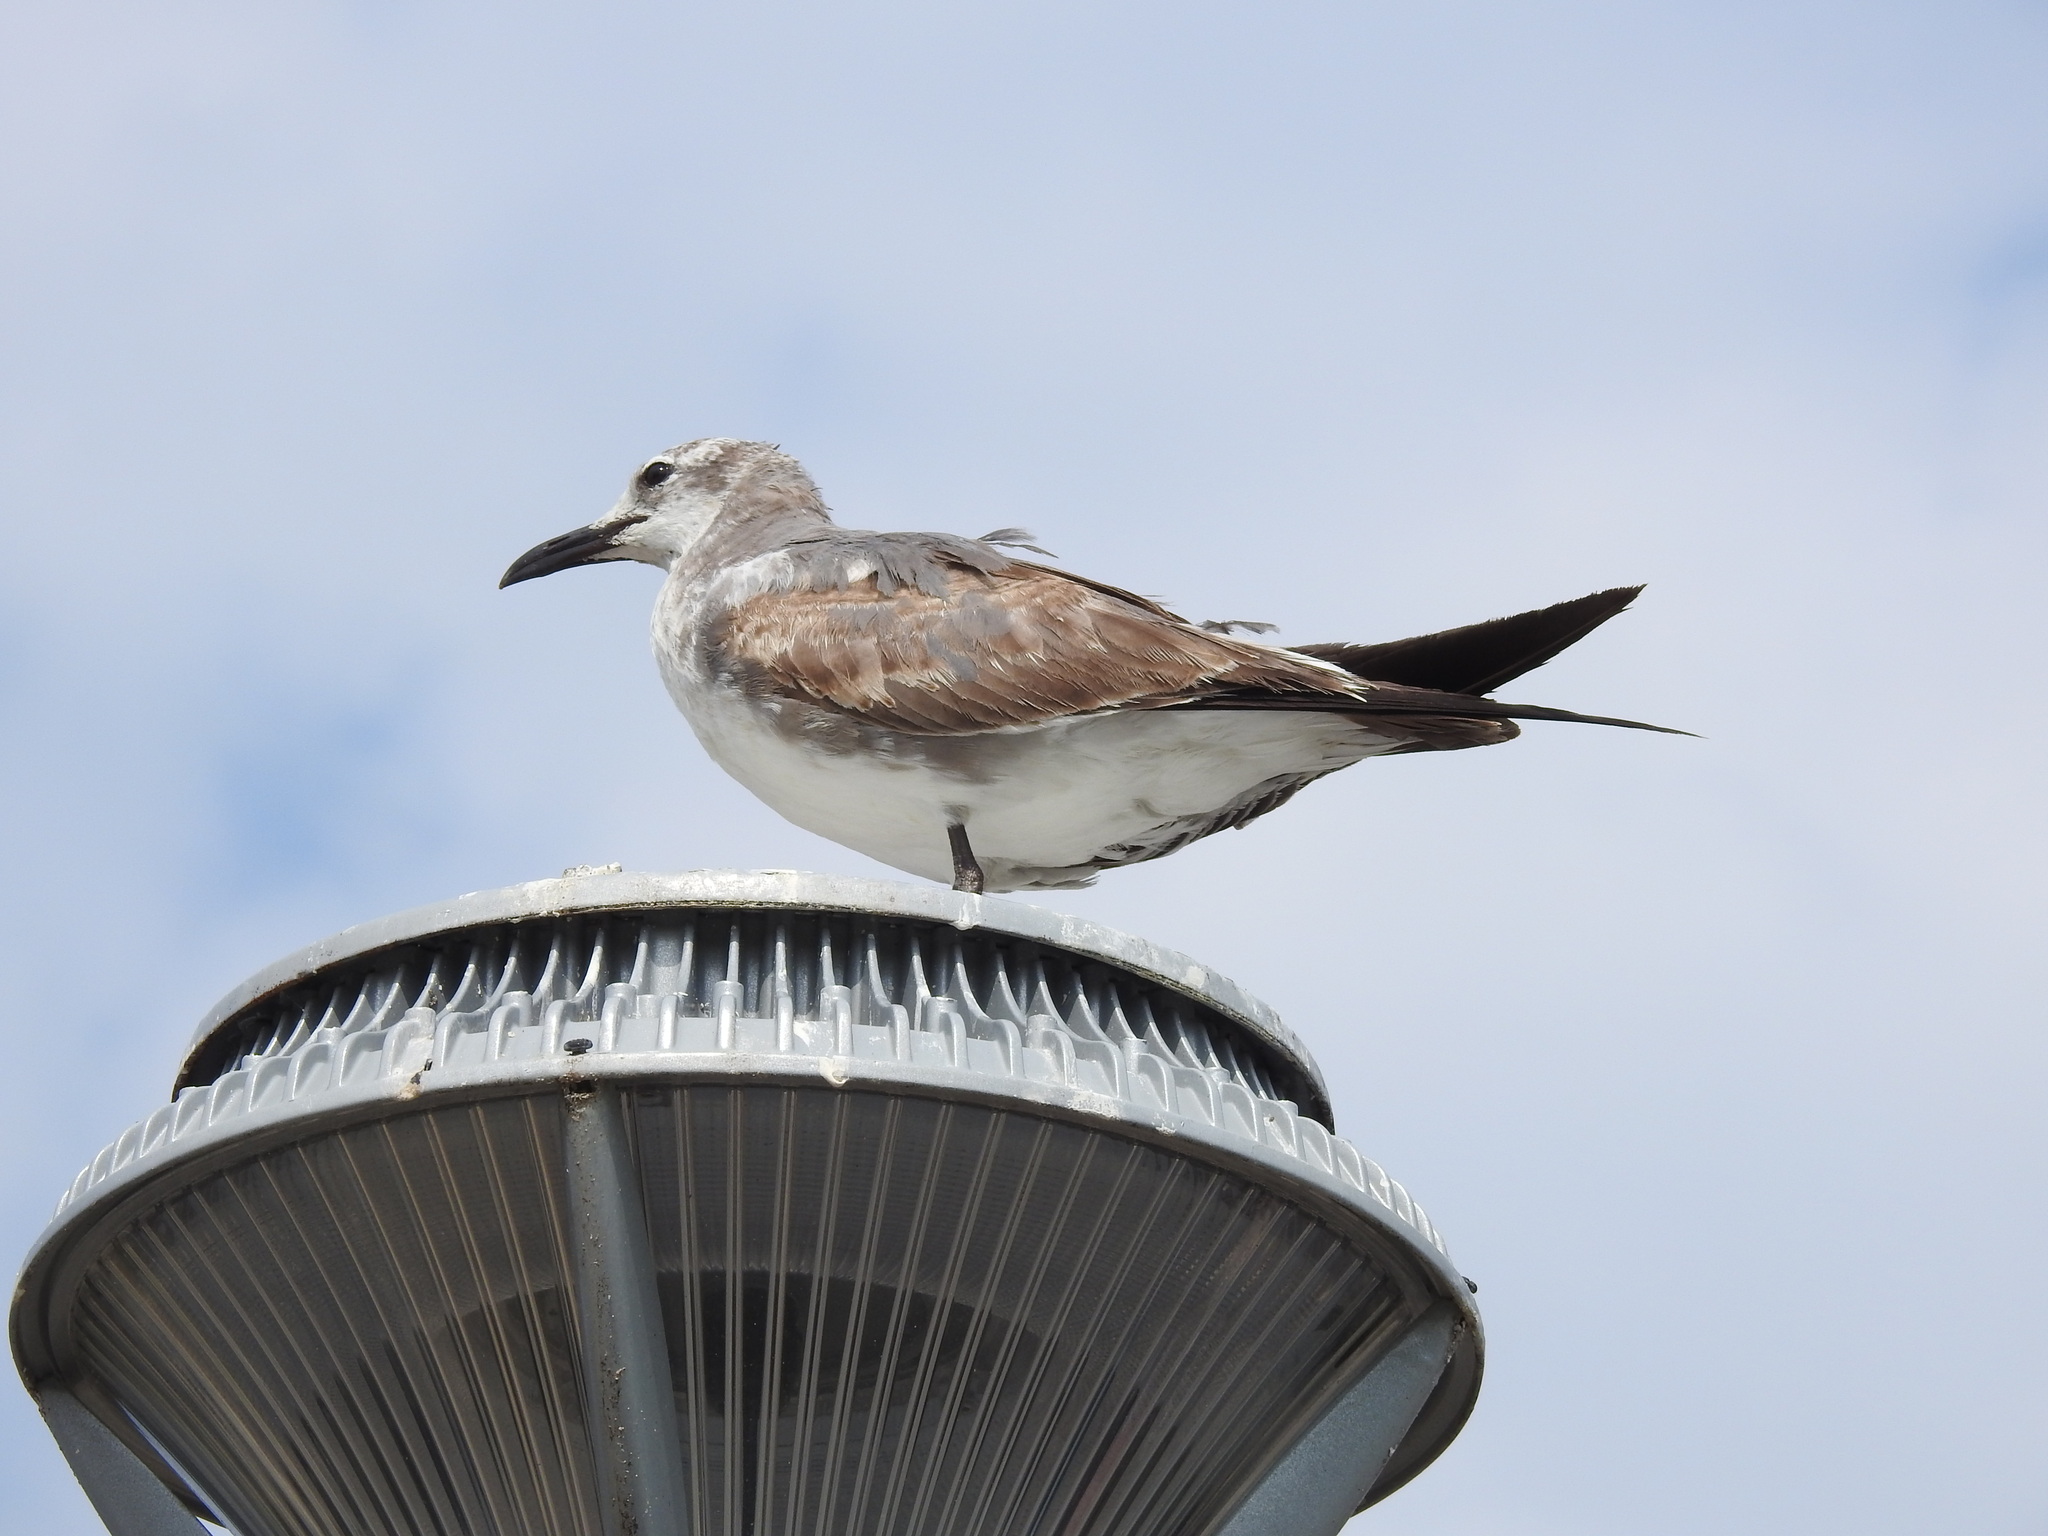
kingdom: Animalia
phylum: Chordata
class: Aves
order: Charadriiformes
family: Laridae
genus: Leucophaeus
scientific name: Leucophaeus atricilla
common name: Laughing gull
